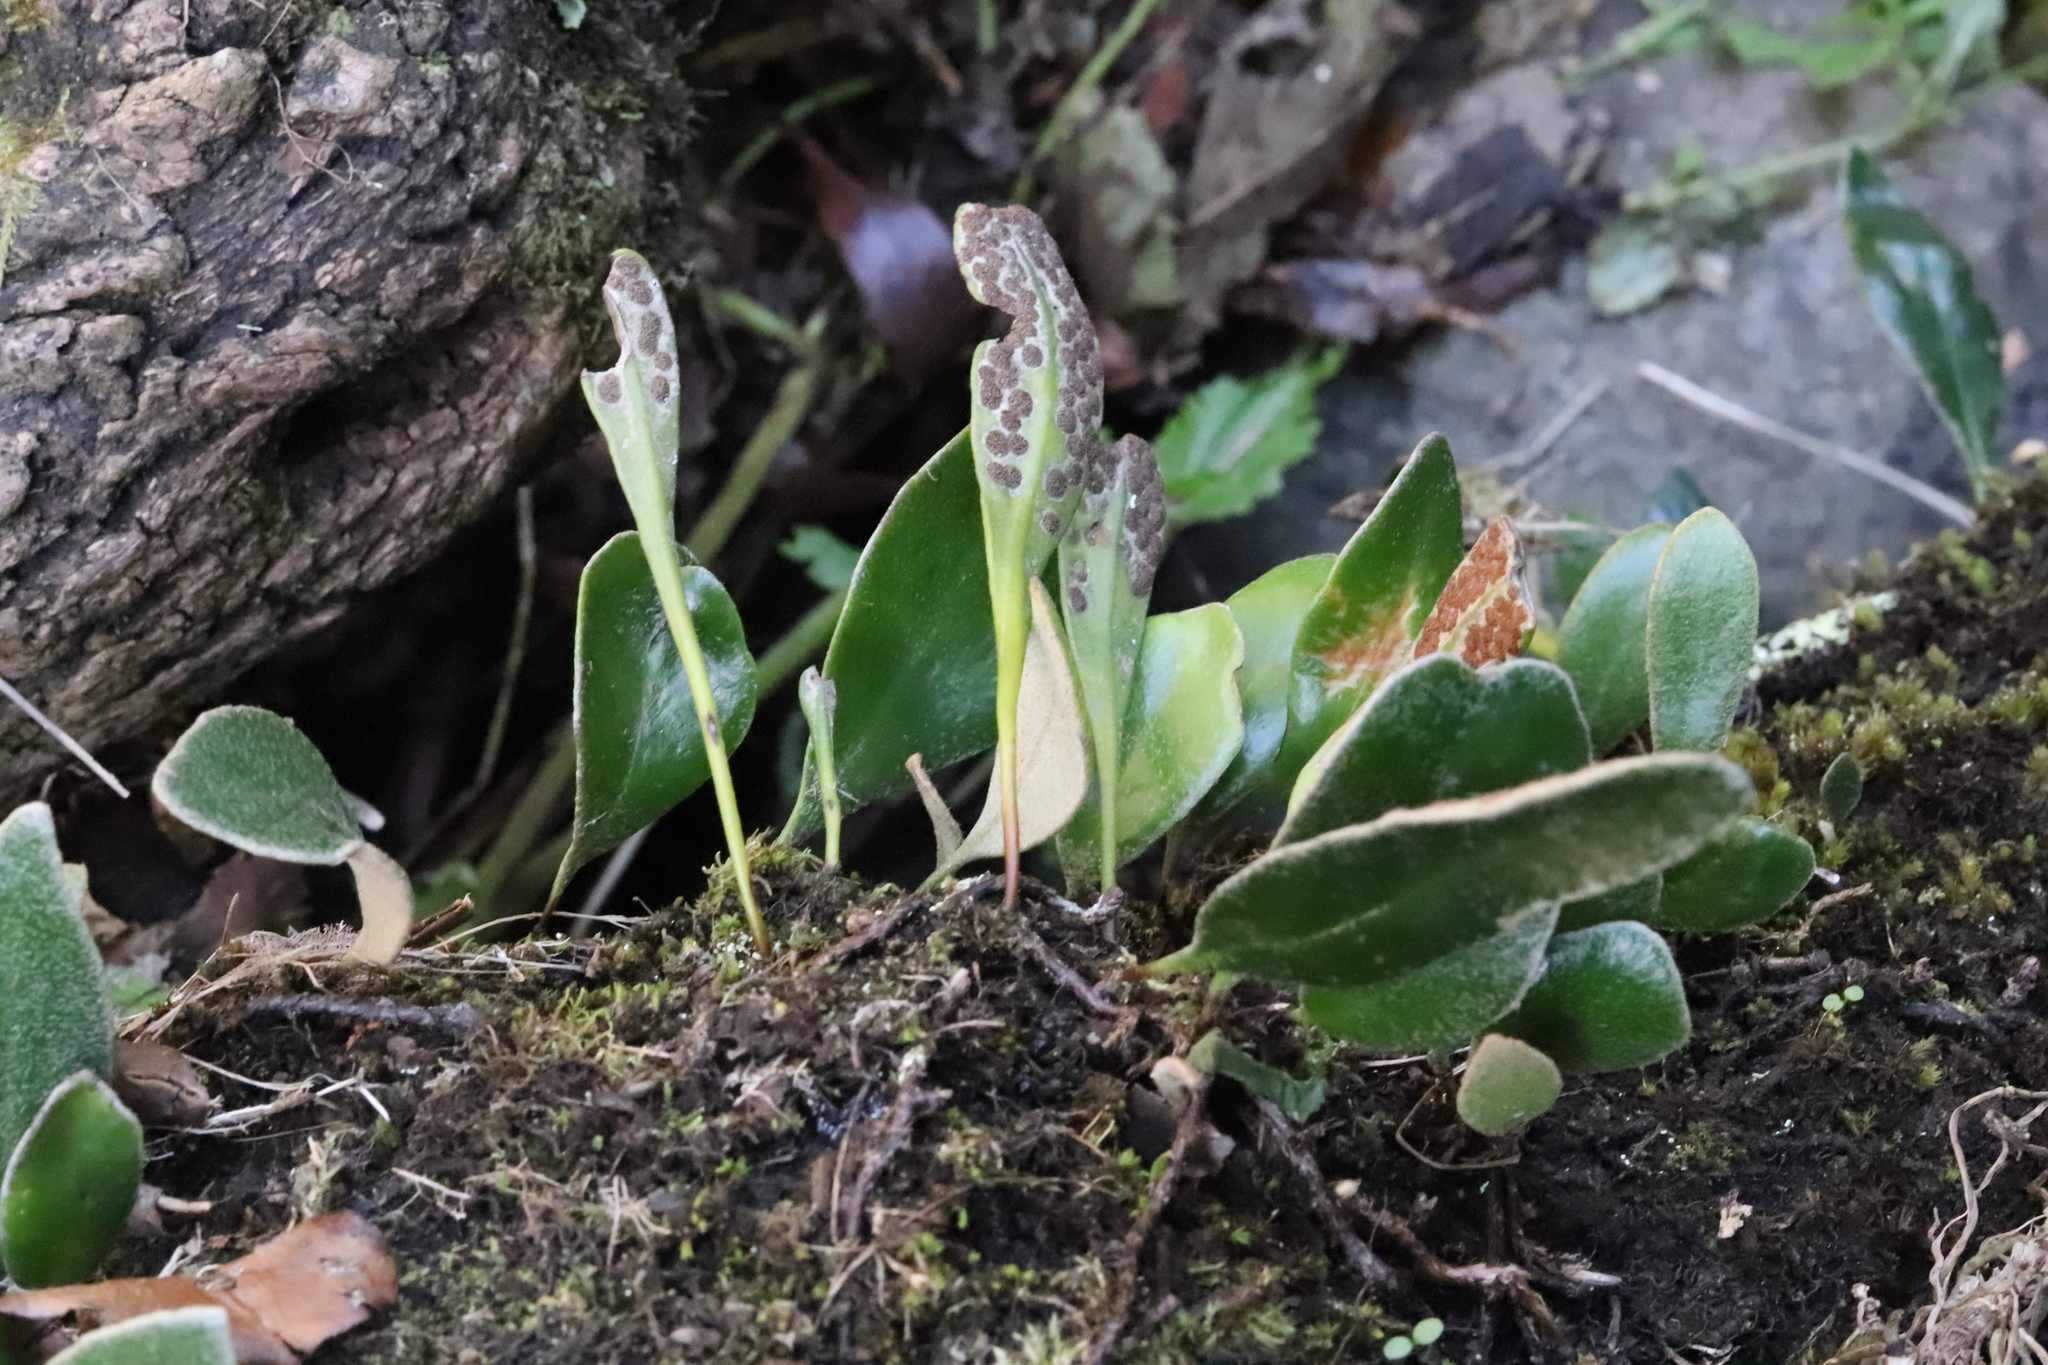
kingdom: Plantae
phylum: Tracheophyta
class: Polypodiopsida
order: Polypodiales
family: Polypodiaceae
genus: Pyrrosia
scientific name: Pyrrosia eleagnifolia
